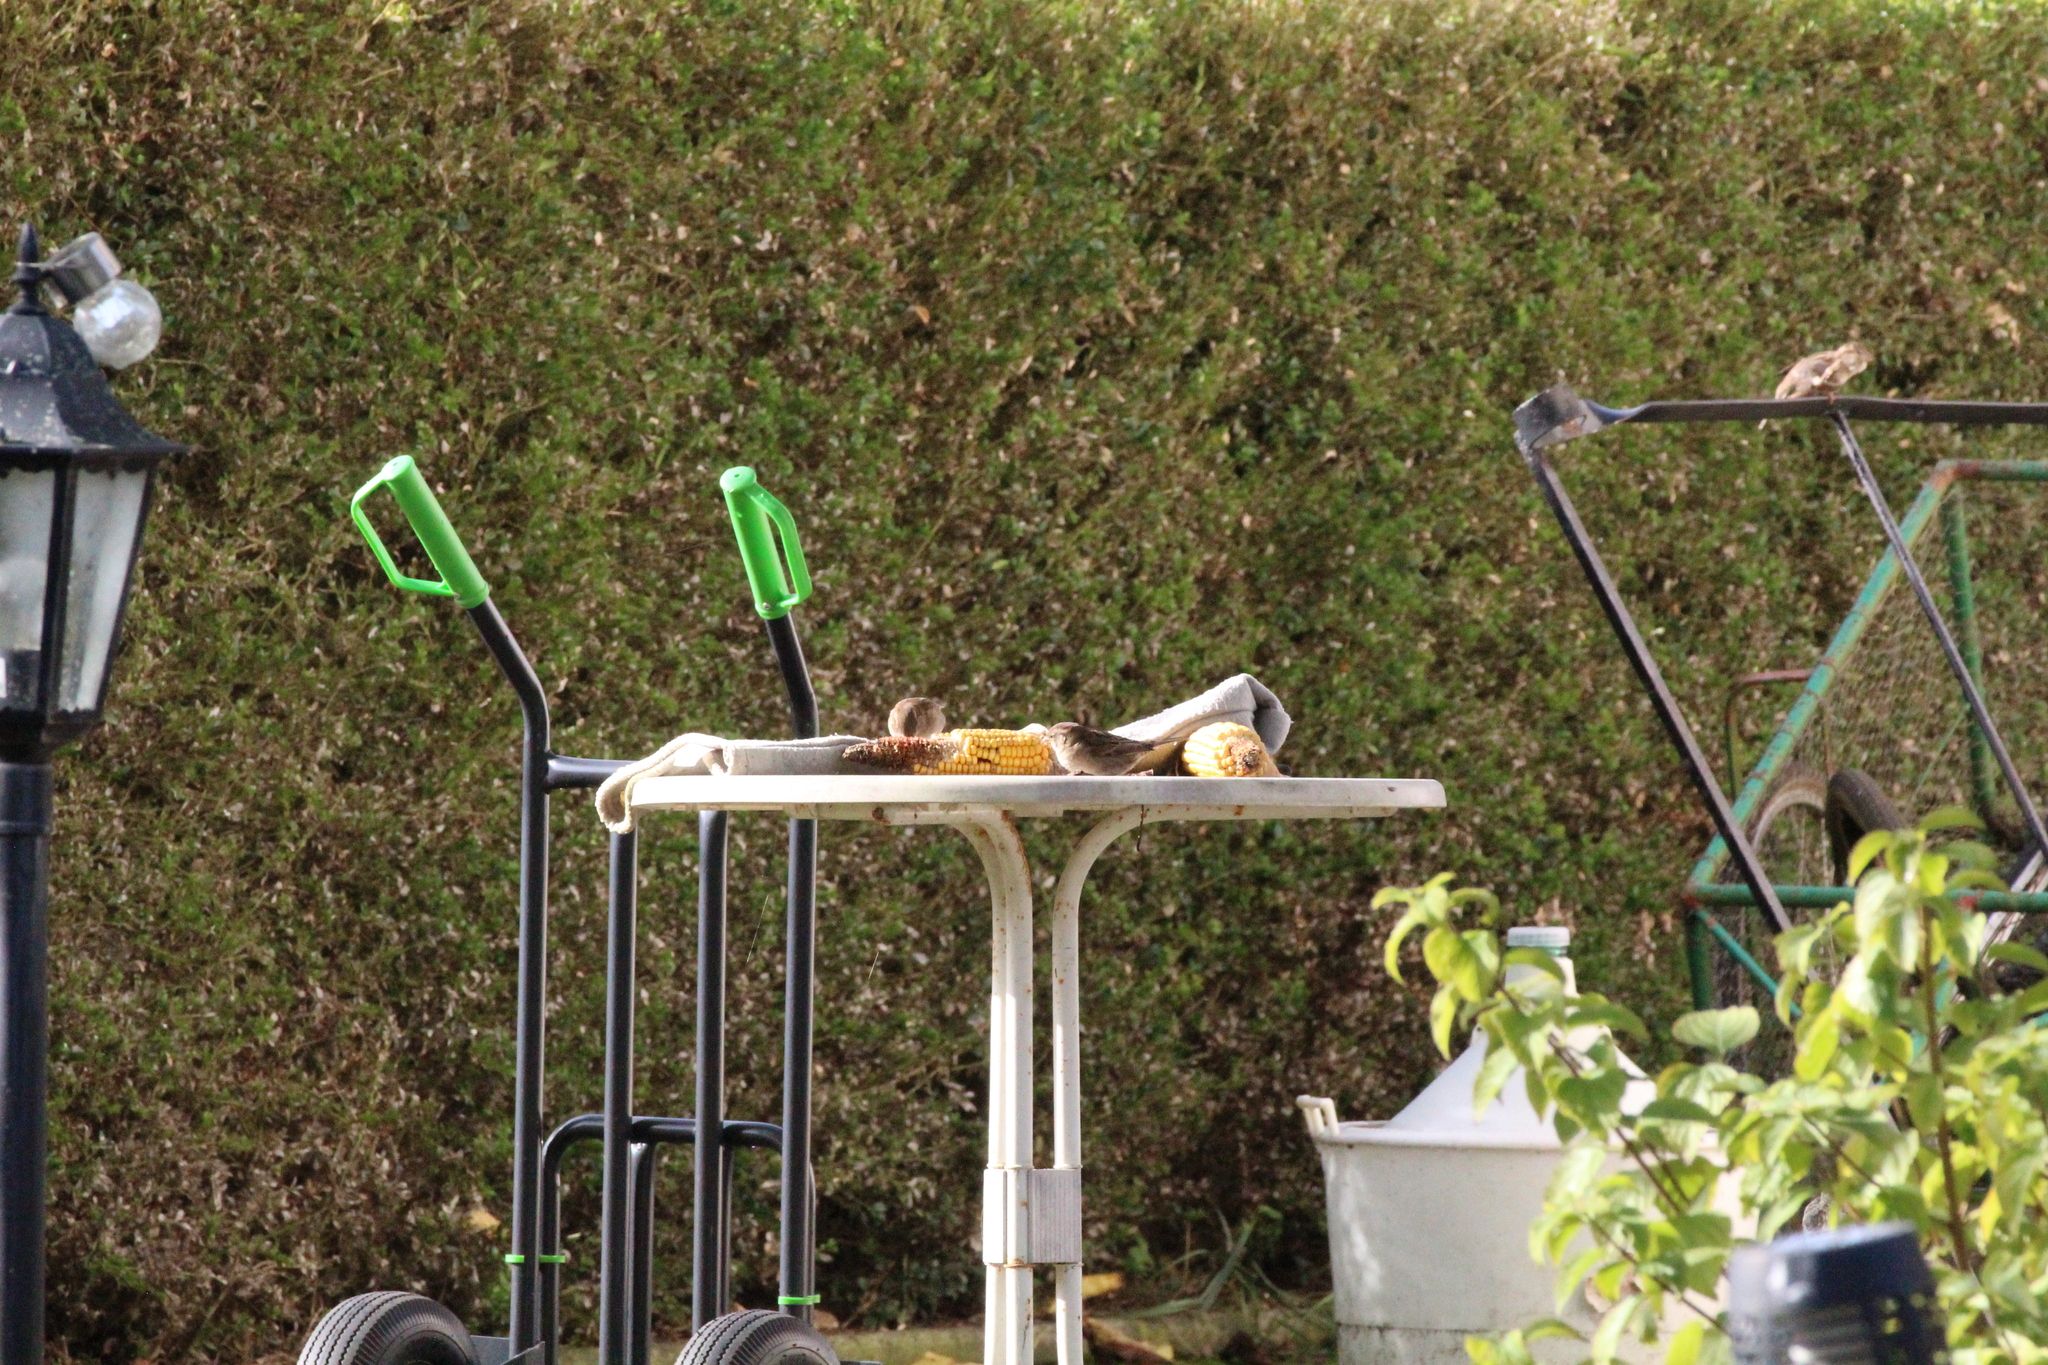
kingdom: Animalia
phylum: Chordata
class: Aves
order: Passeriformes
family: Passeridae
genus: Passer
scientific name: Passer domesticus
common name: House sparrow
